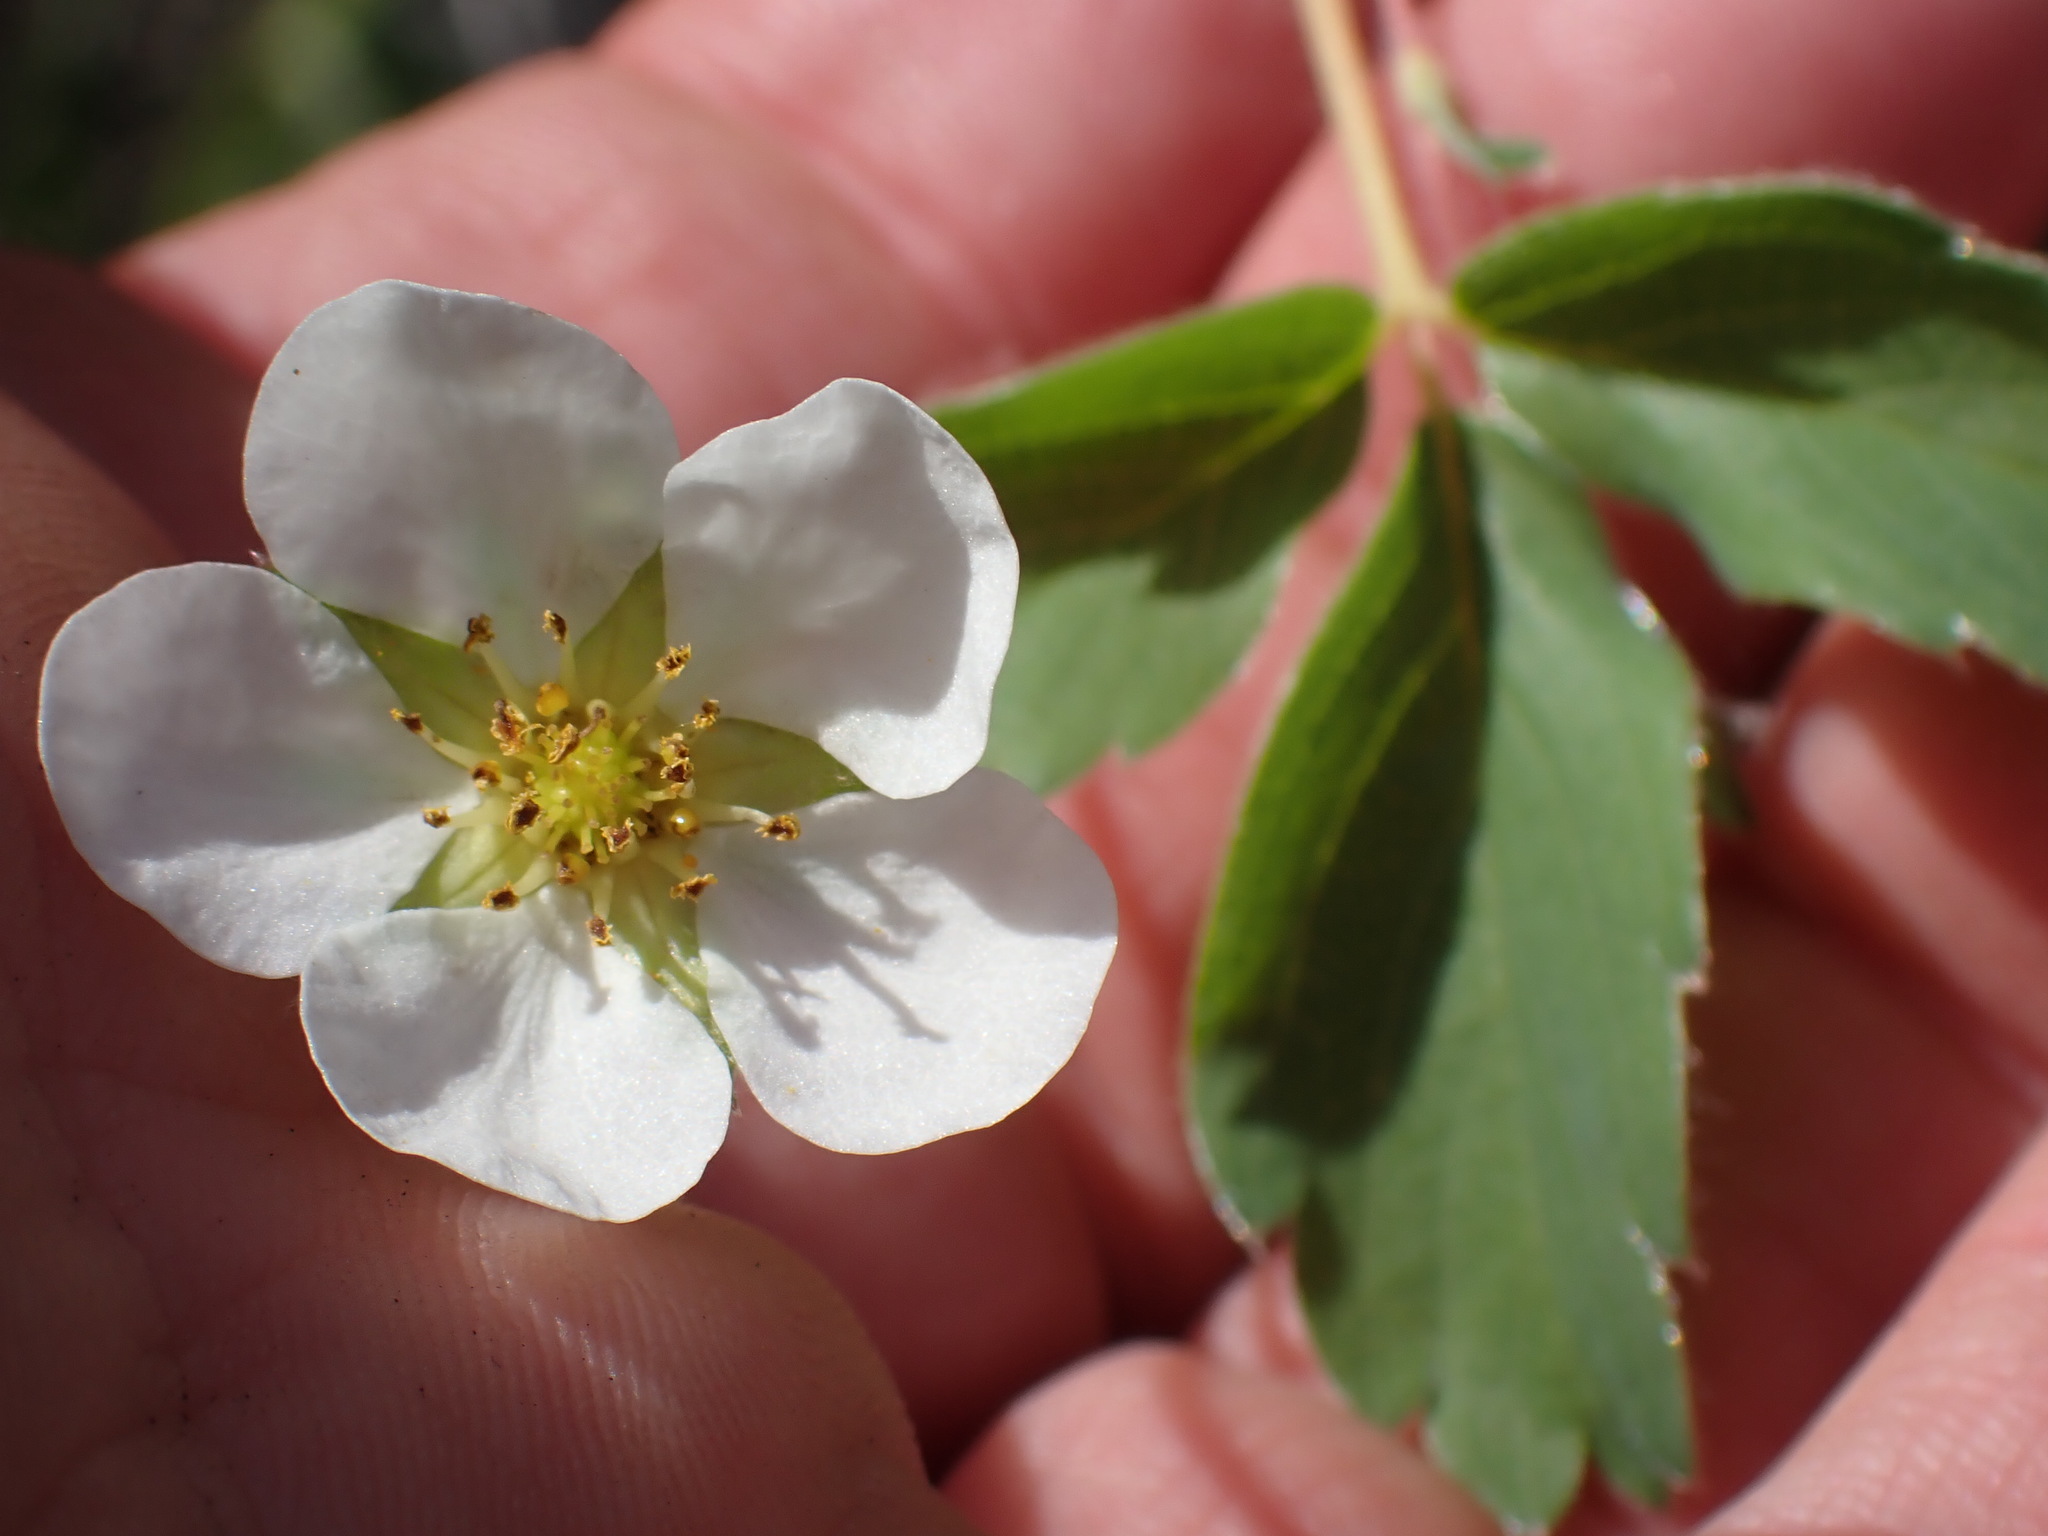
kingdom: Plantae
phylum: Tracheophyta
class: Magnoliopsida
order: Rosales
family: Rosaceae
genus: Fragaria
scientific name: Fragaria virginiana
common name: Thickleaved wild strawberry
